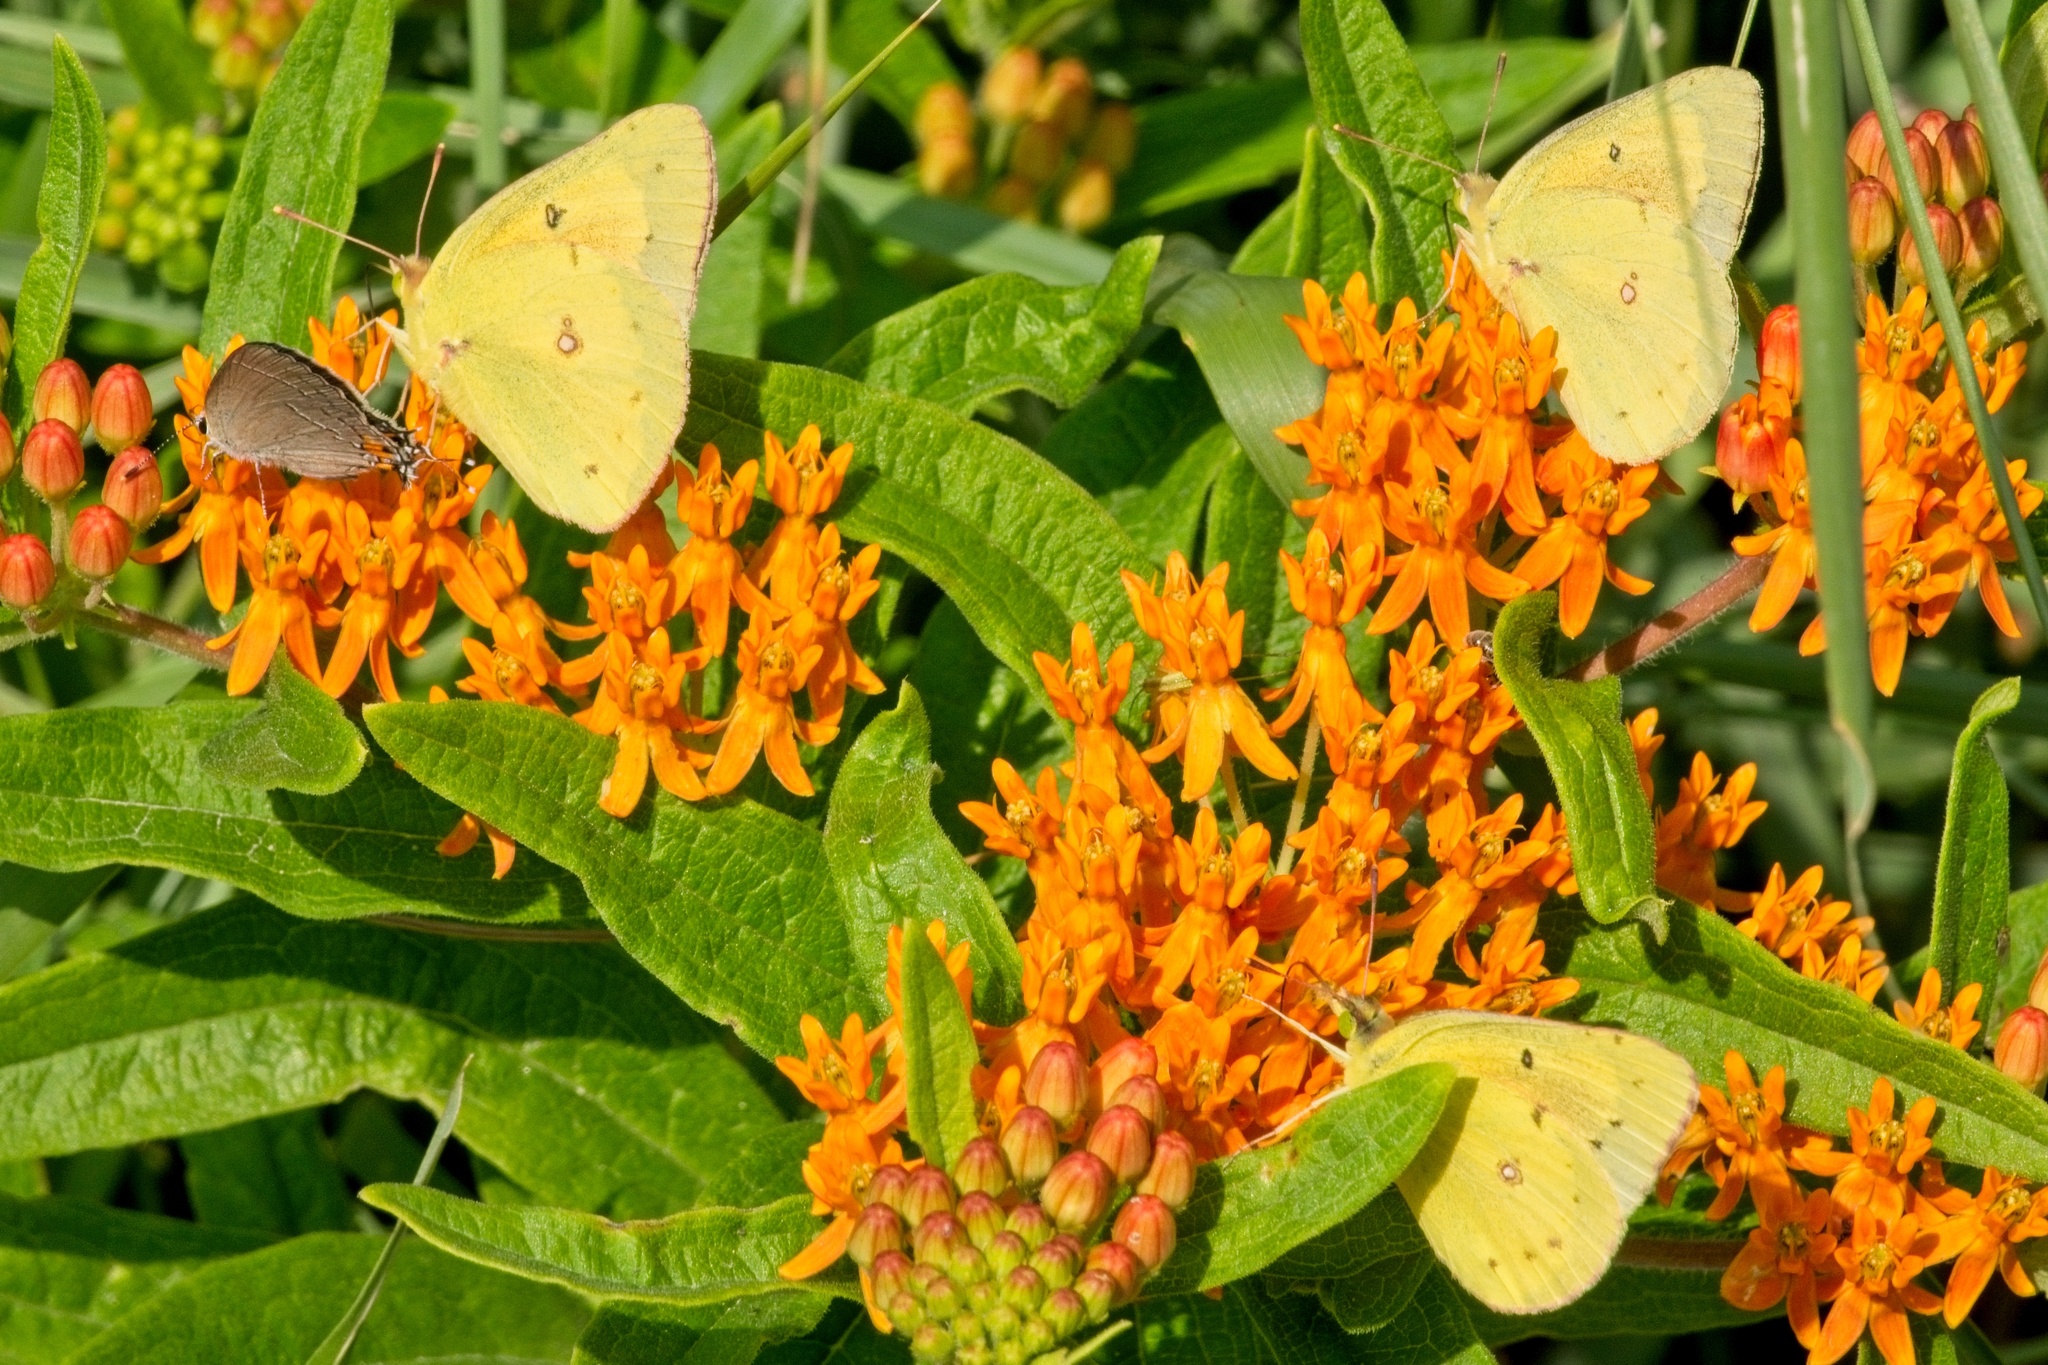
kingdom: Animalia
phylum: Arthropoda
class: Insecta
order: Lepidoptera
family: Pieridae
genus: Colias
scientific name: Colias eurytheme
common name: Alfalfa butterfly
